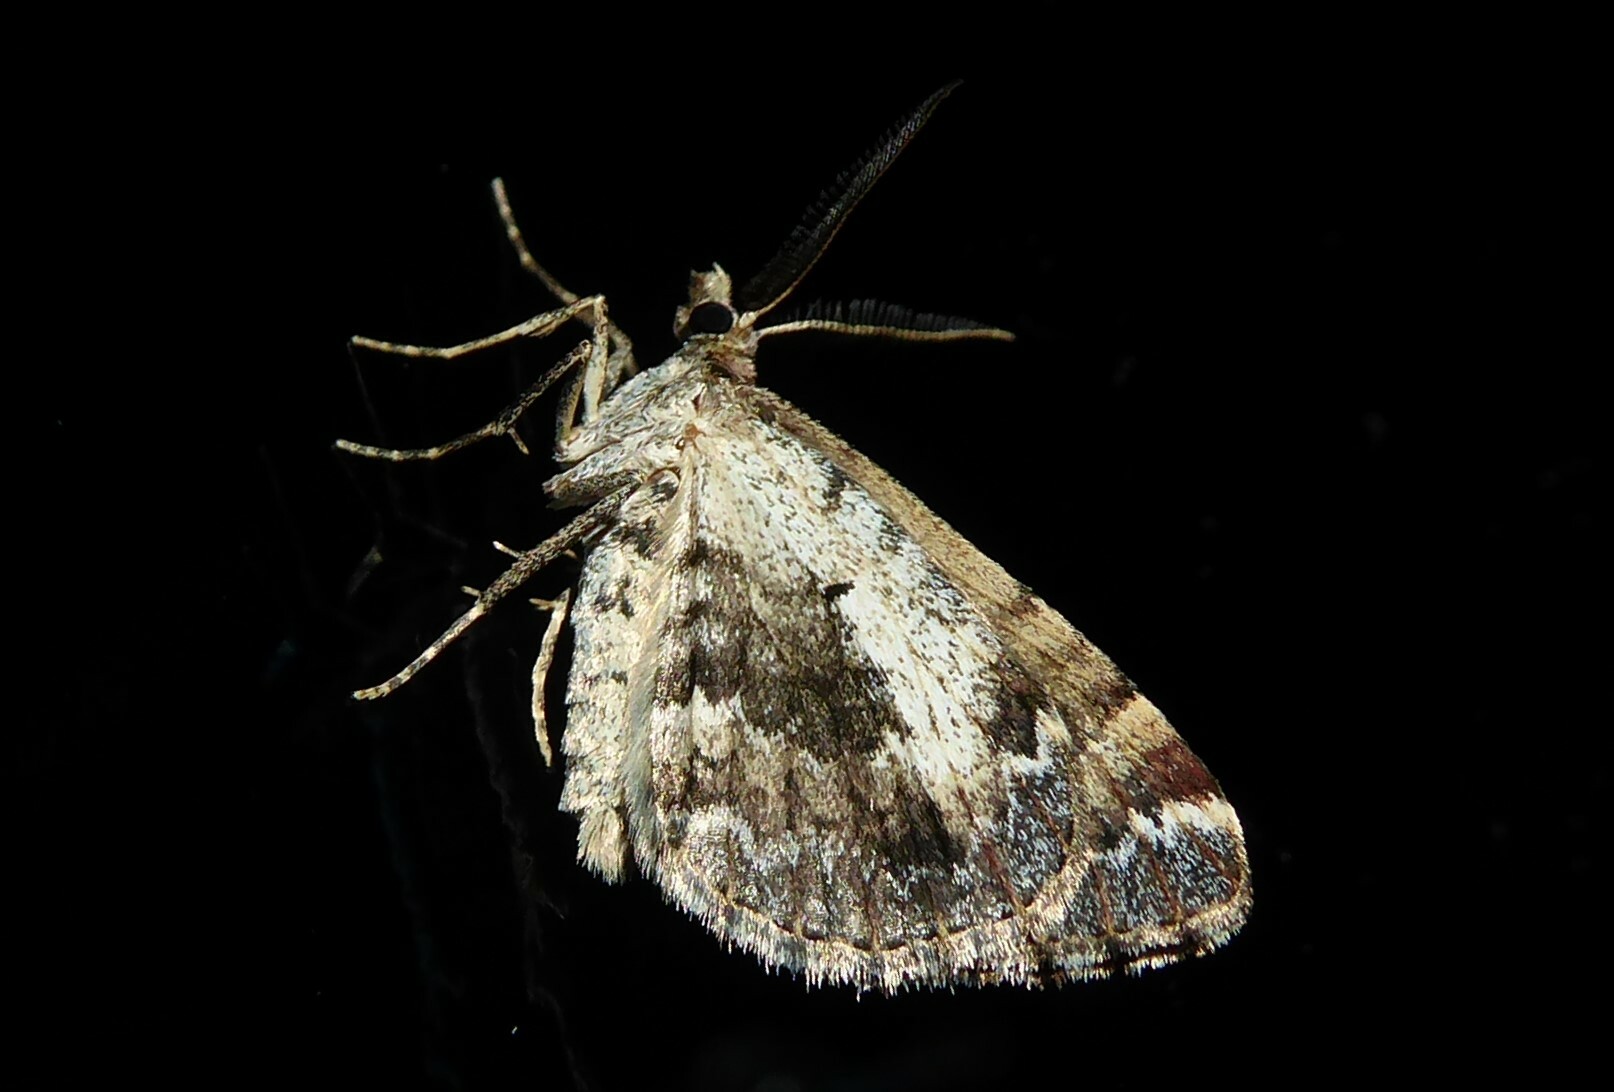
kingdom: Animalia
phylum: Arthropoda
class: Insecta
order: Lepidoptera
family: Geometridae
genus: Asaphodes
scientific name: Asaphodes aegrota
